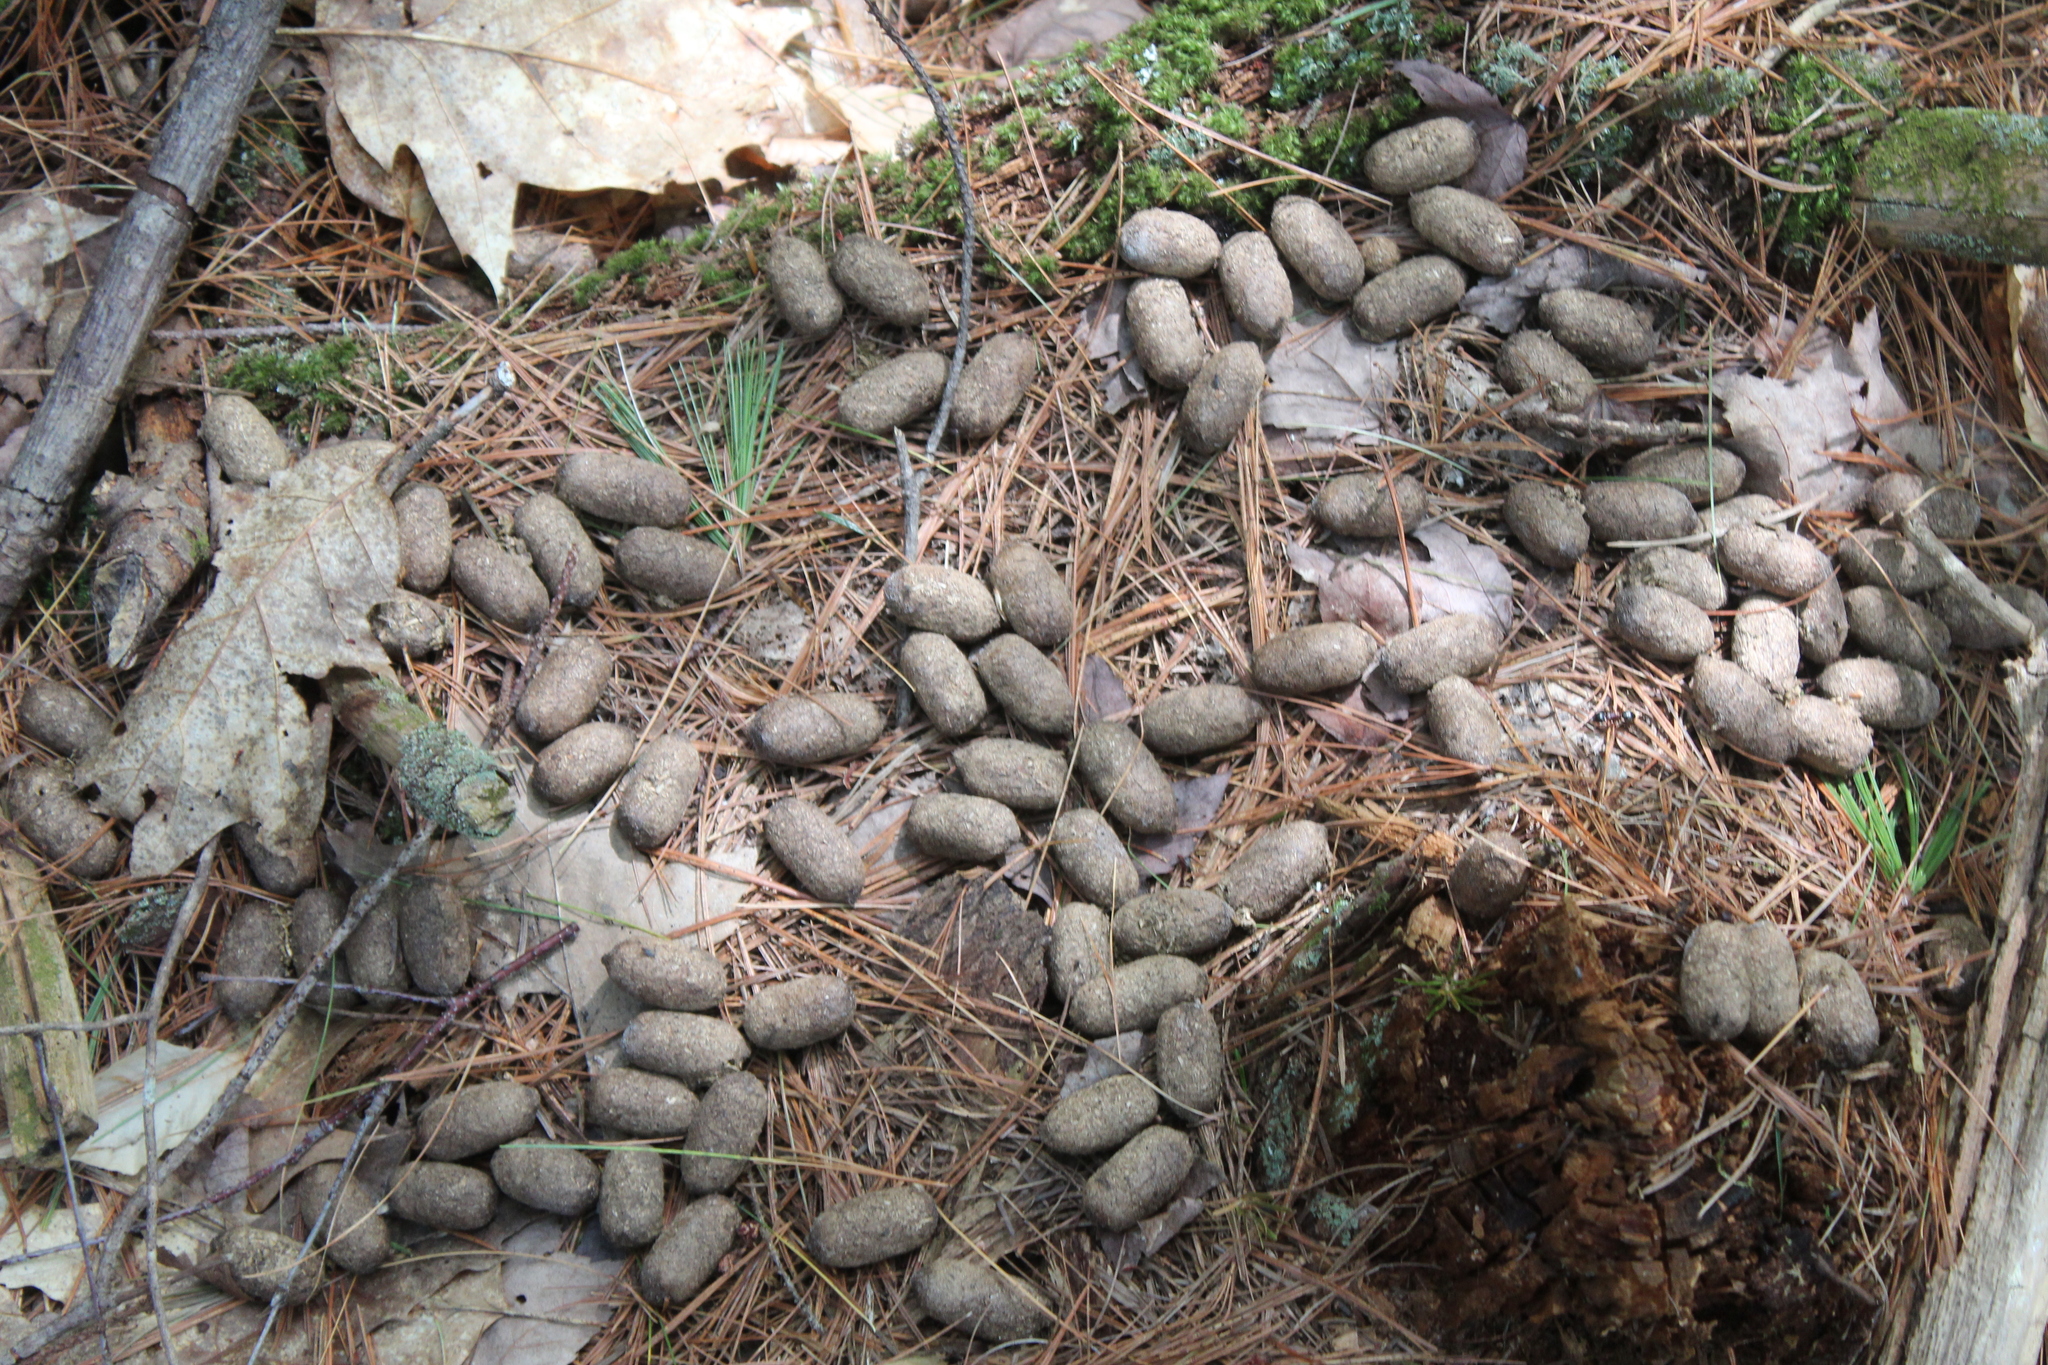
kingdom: Animalia
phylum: Chordata
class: Mammalia
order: Artiodactyla
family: Cervidae
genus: Alces
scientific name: Alces alces
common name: Moose
